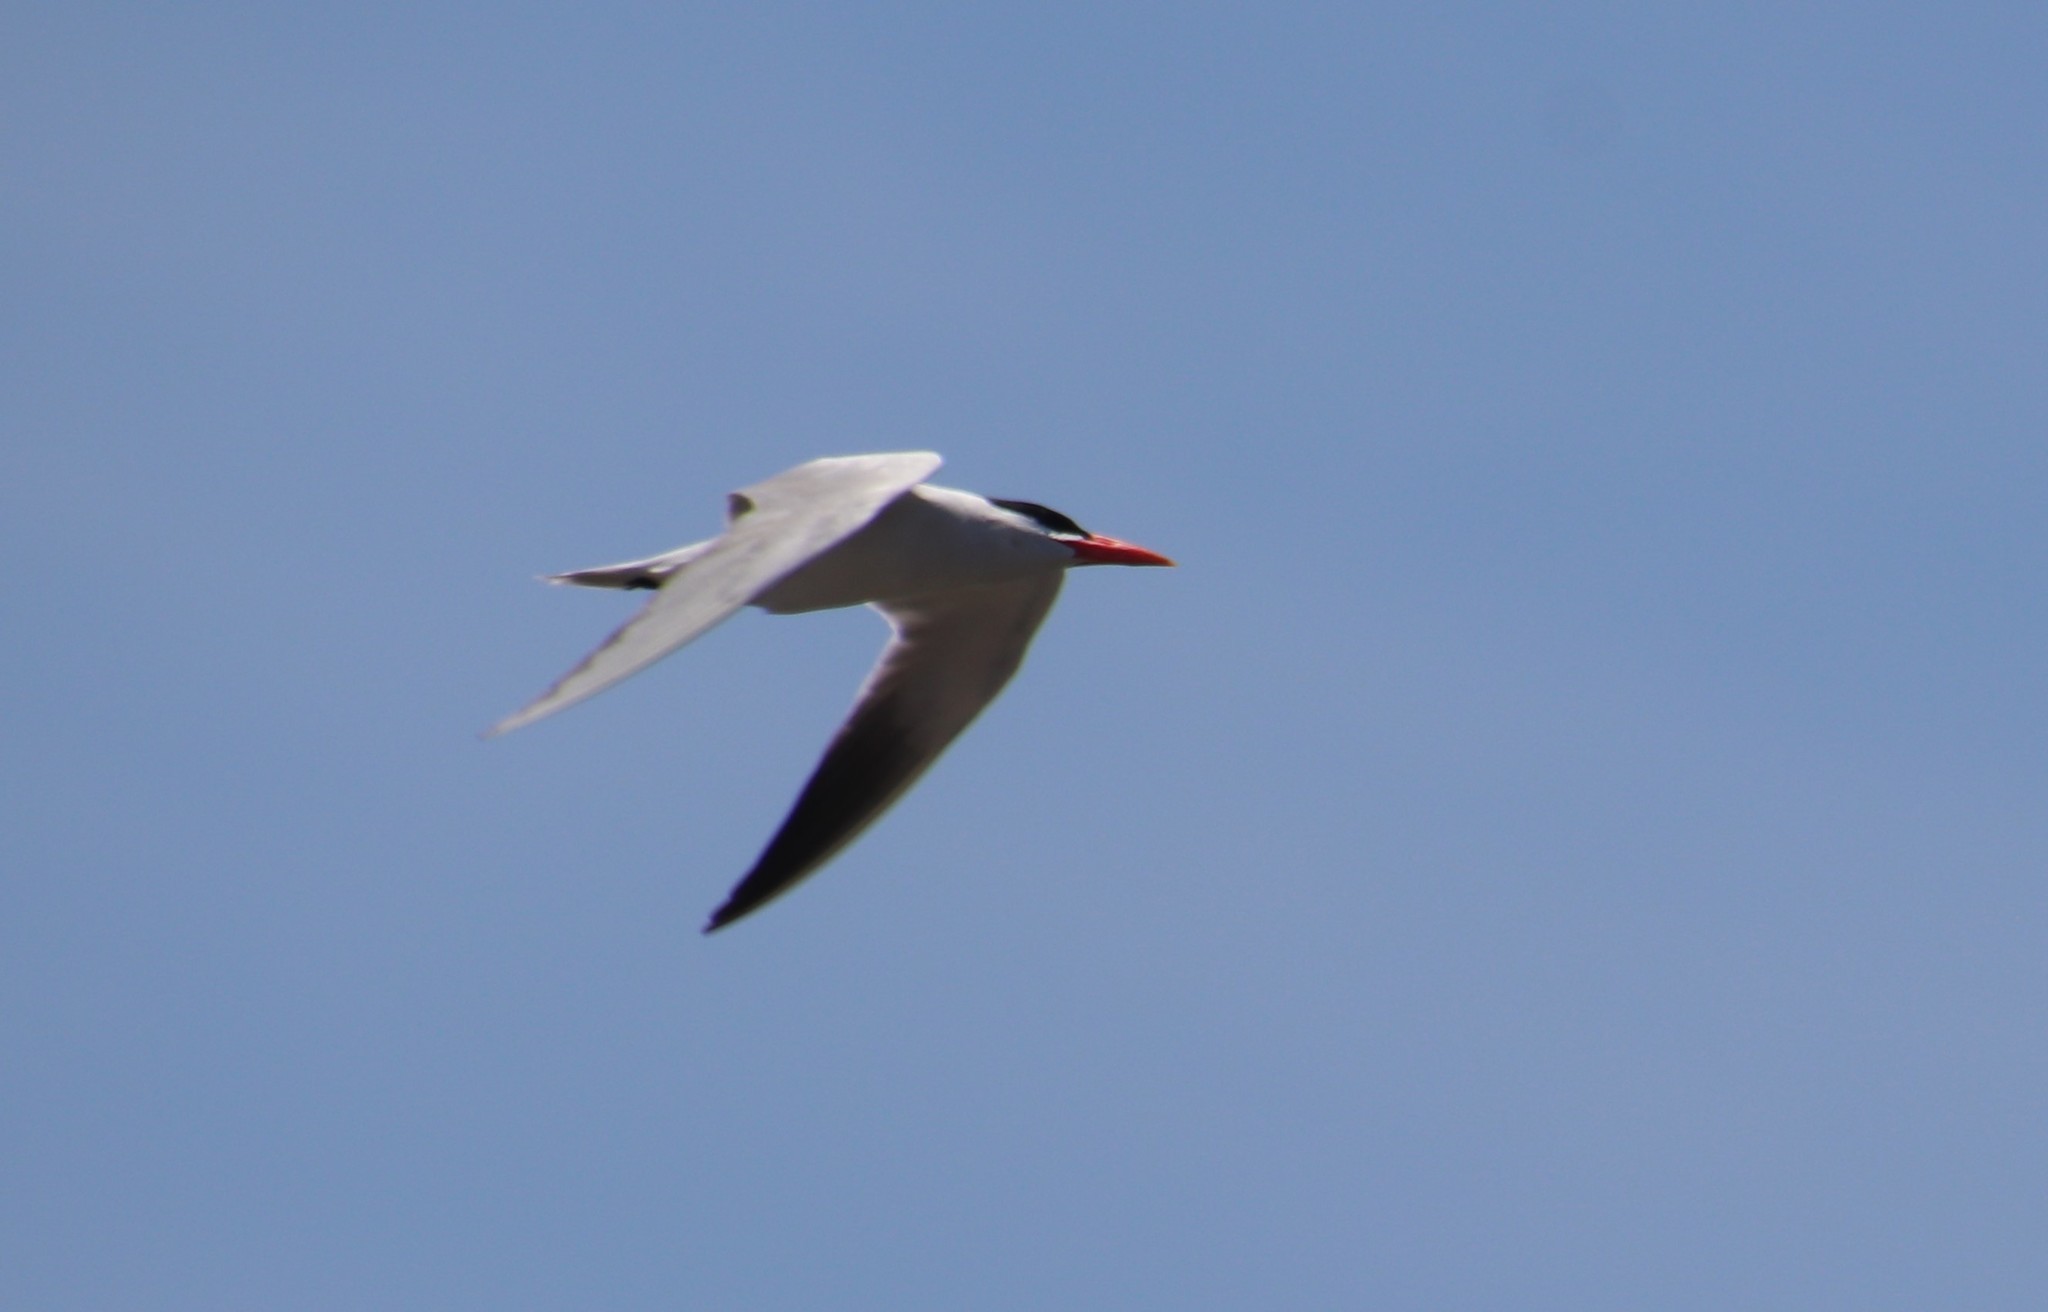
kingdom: Animalia
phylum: Chordata
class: Aves
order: Charadriiformes
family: Laridae
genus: Hydroprogne
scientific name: Hydroprogne caspia
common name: Caspian tern
